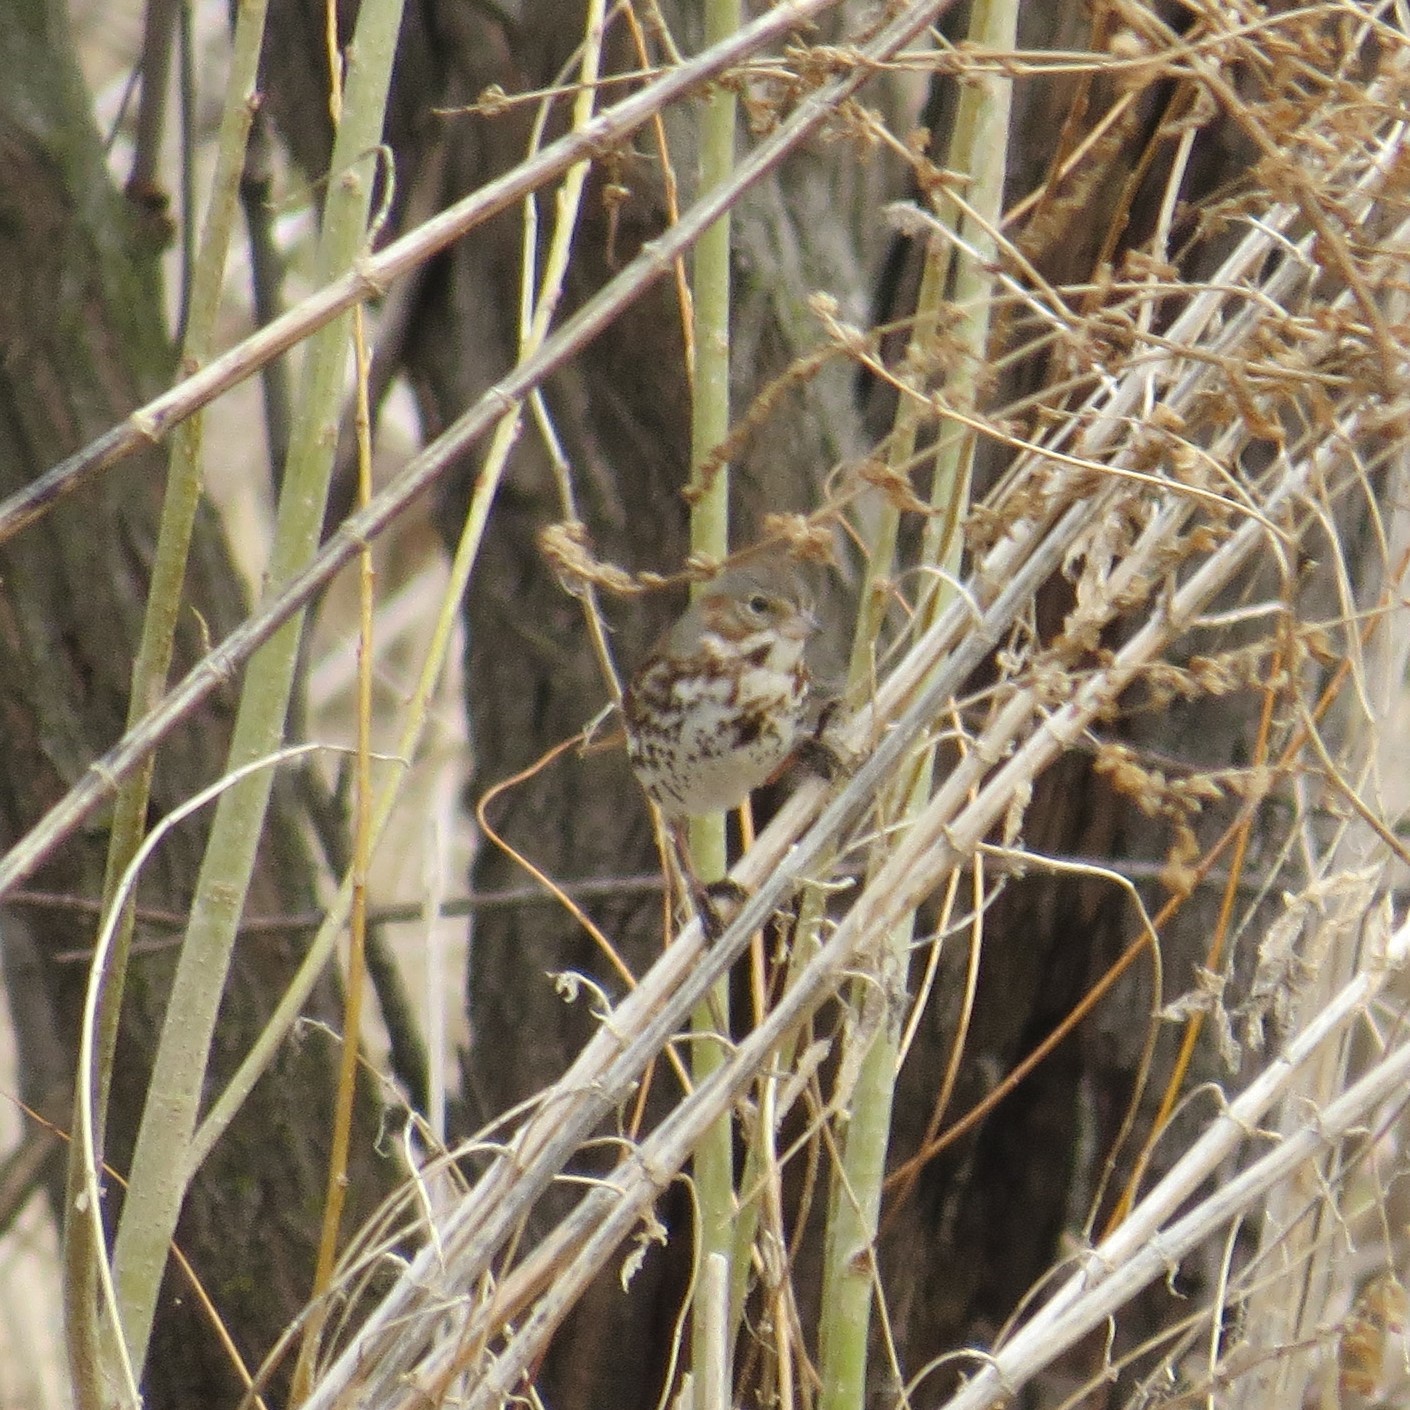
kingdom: Animalia
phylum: Chordata
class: Aves
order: Passeriformes
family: Passerellidae
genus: Passerella
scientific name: Passerella iliaca
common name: Fox sparrow
